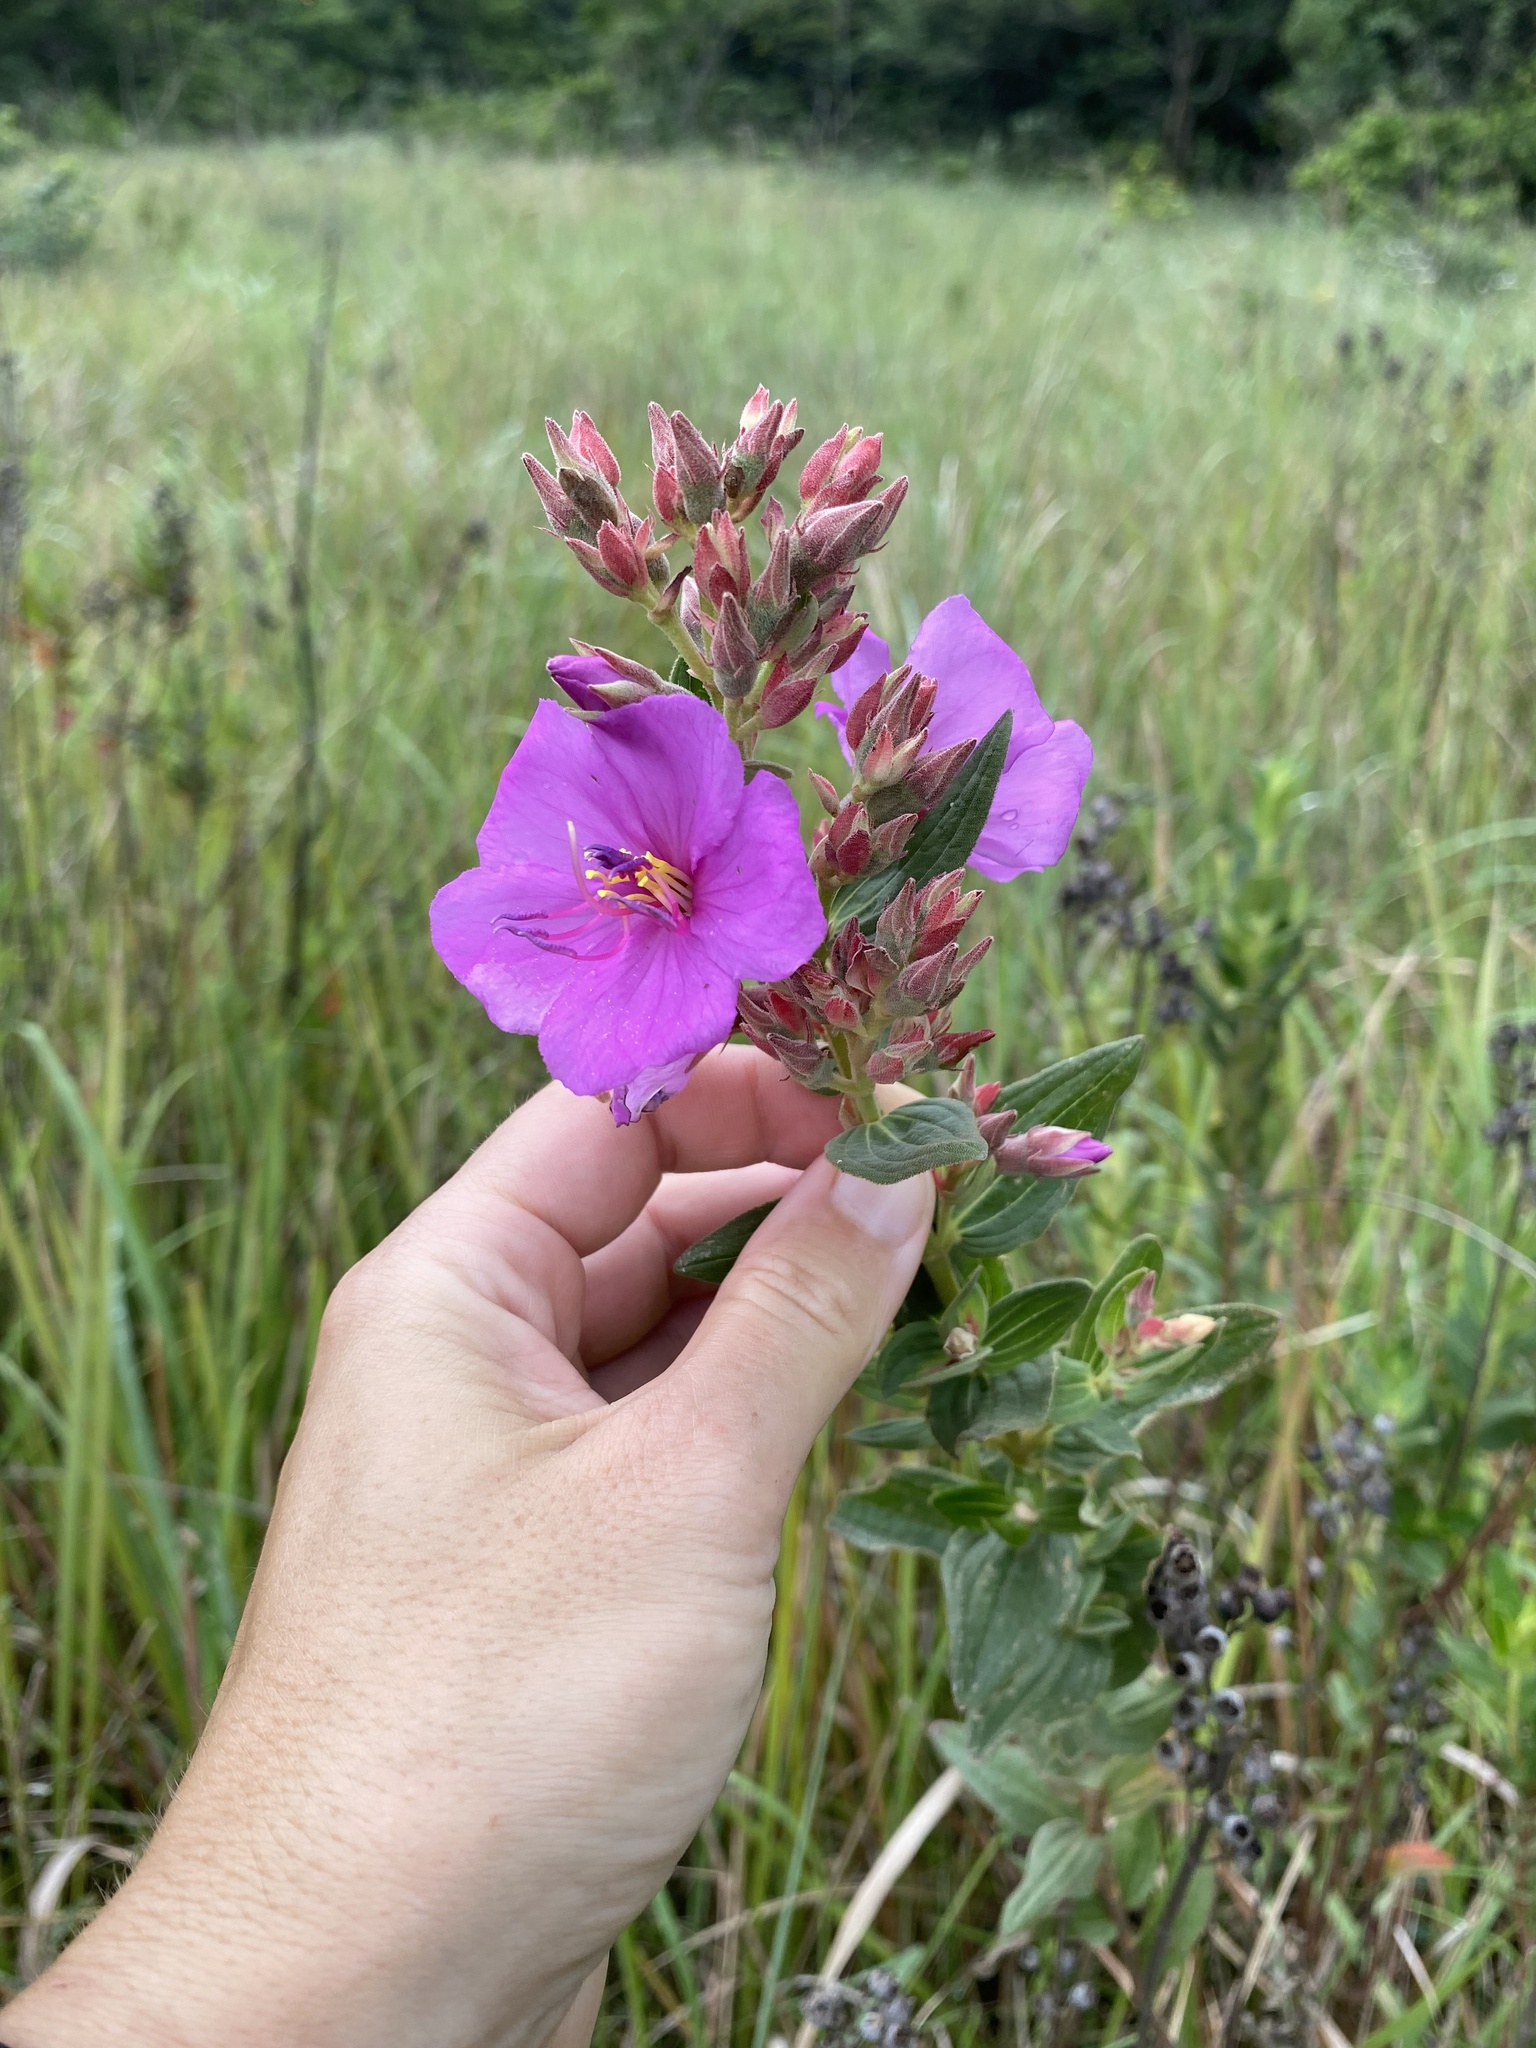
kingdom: Plantae
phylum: Tracheophyta
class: Magnoliopsida
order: Myrtales
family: Melastomataceae
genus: Argyrella
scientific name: Argyrella canescens
